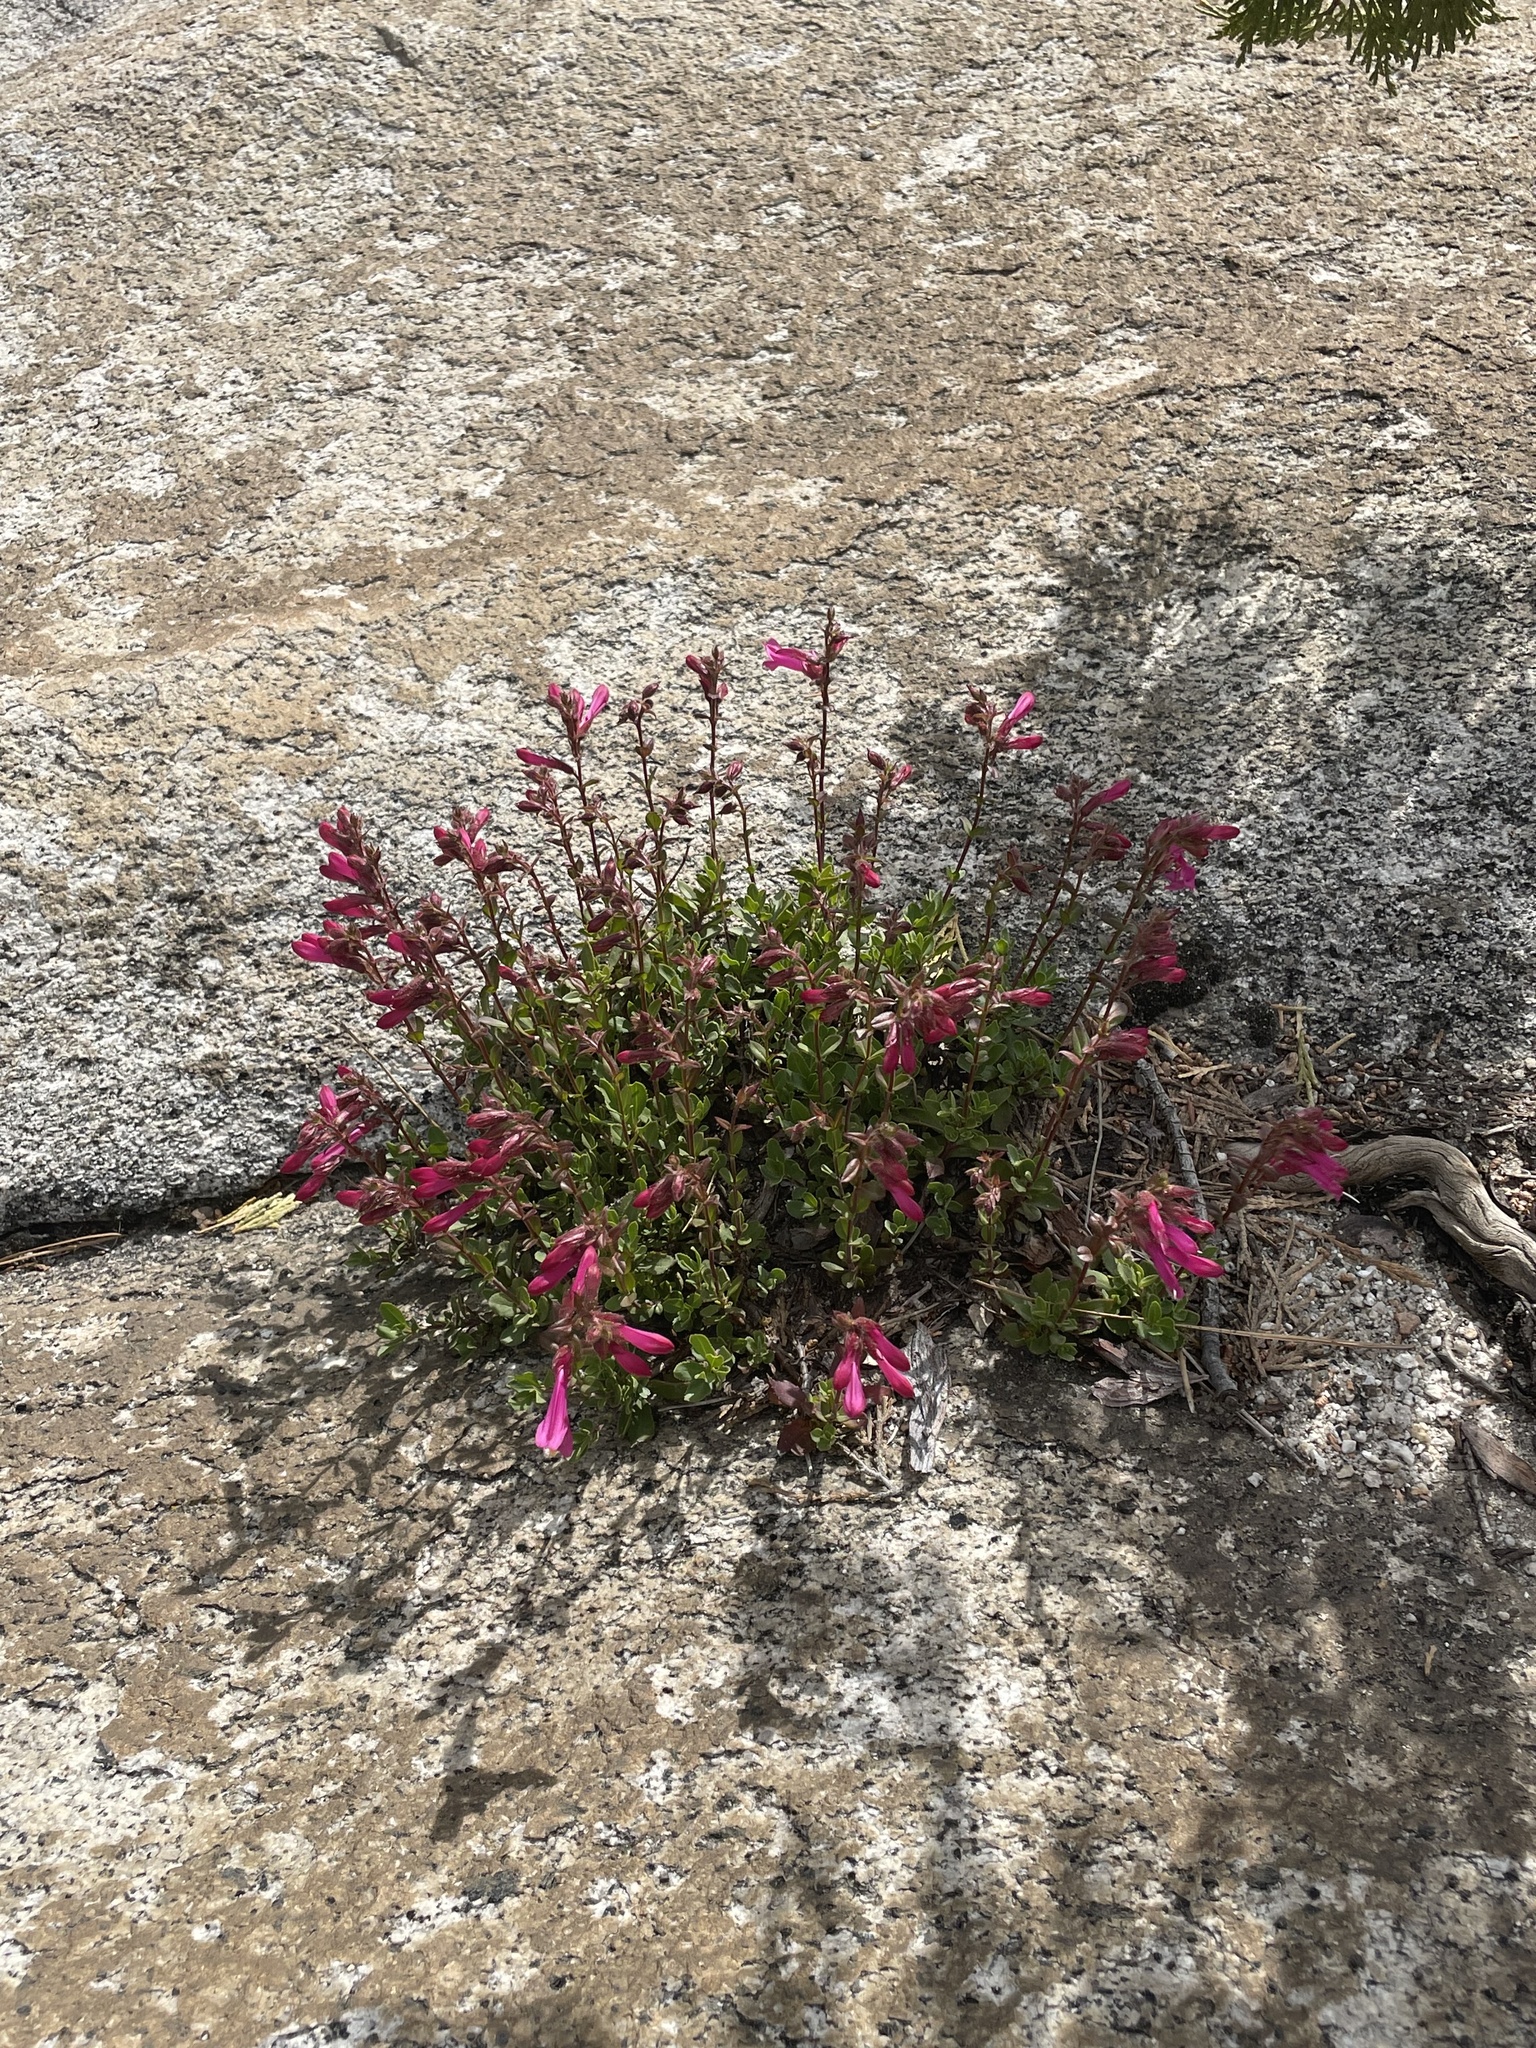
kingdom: Plantae
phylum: Tracheophyta
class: Magnoliopsida
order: Lamiales
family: Plantaginaceae
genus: Penstemon
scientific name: Penstemon newberryi
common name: Mountain-pride
